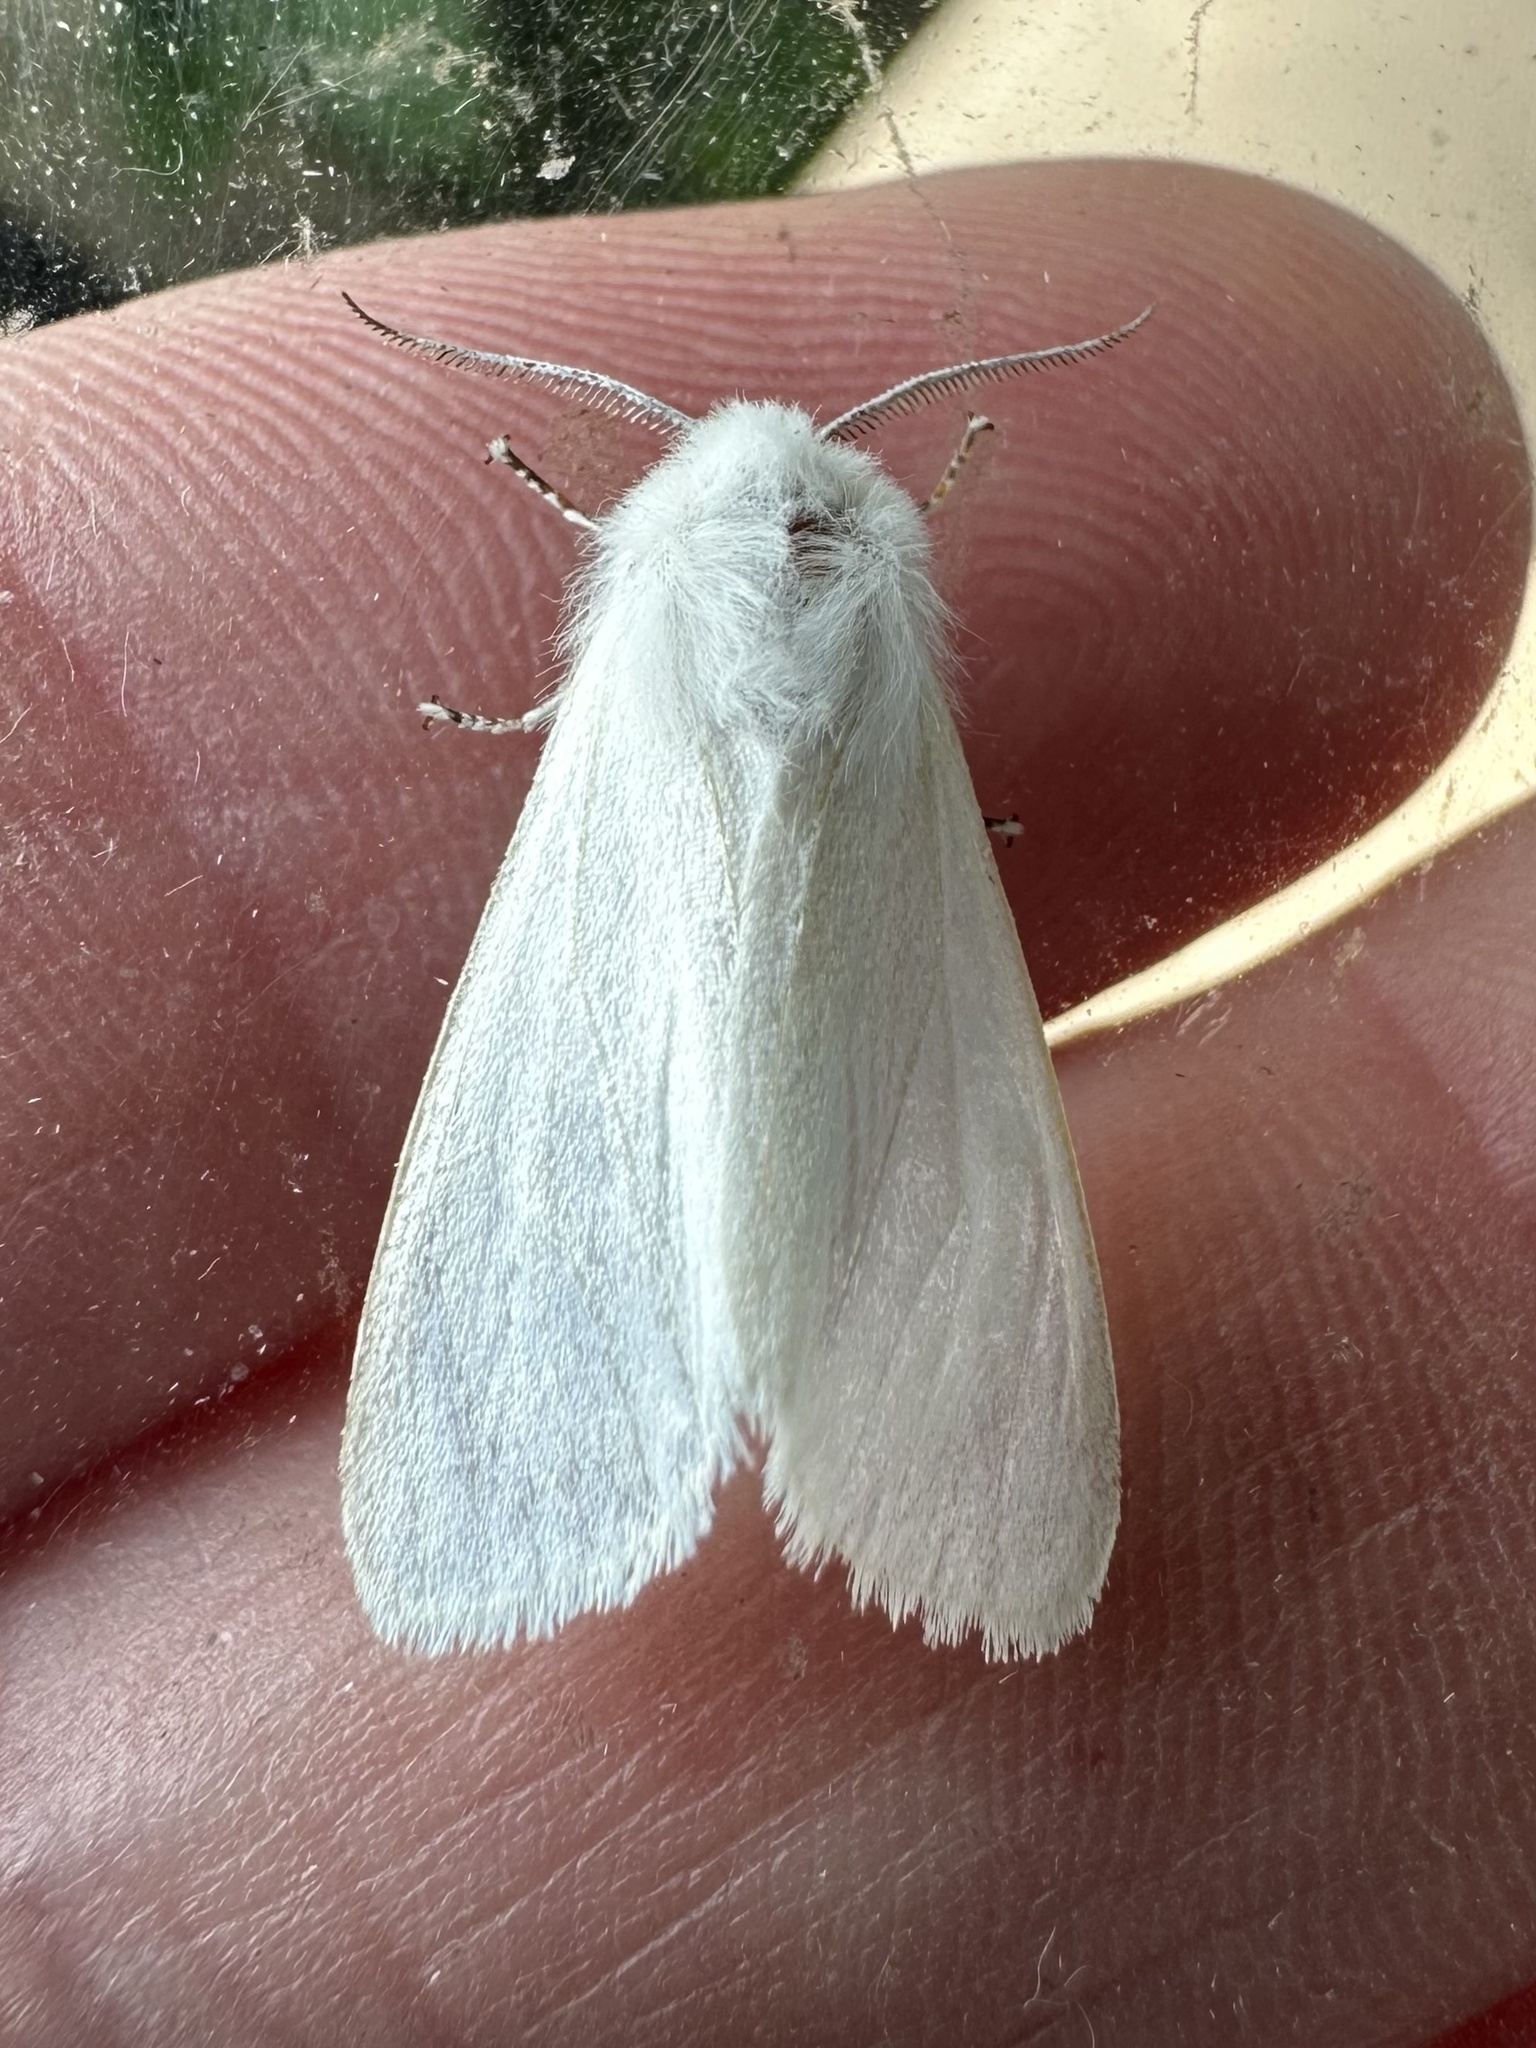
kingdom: Animalia
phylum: Arthropoda
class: Insecta
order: Lepidoptera
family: Erebidae
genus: Hyphantria
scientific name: Hyphantria cunea
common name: American white moth
